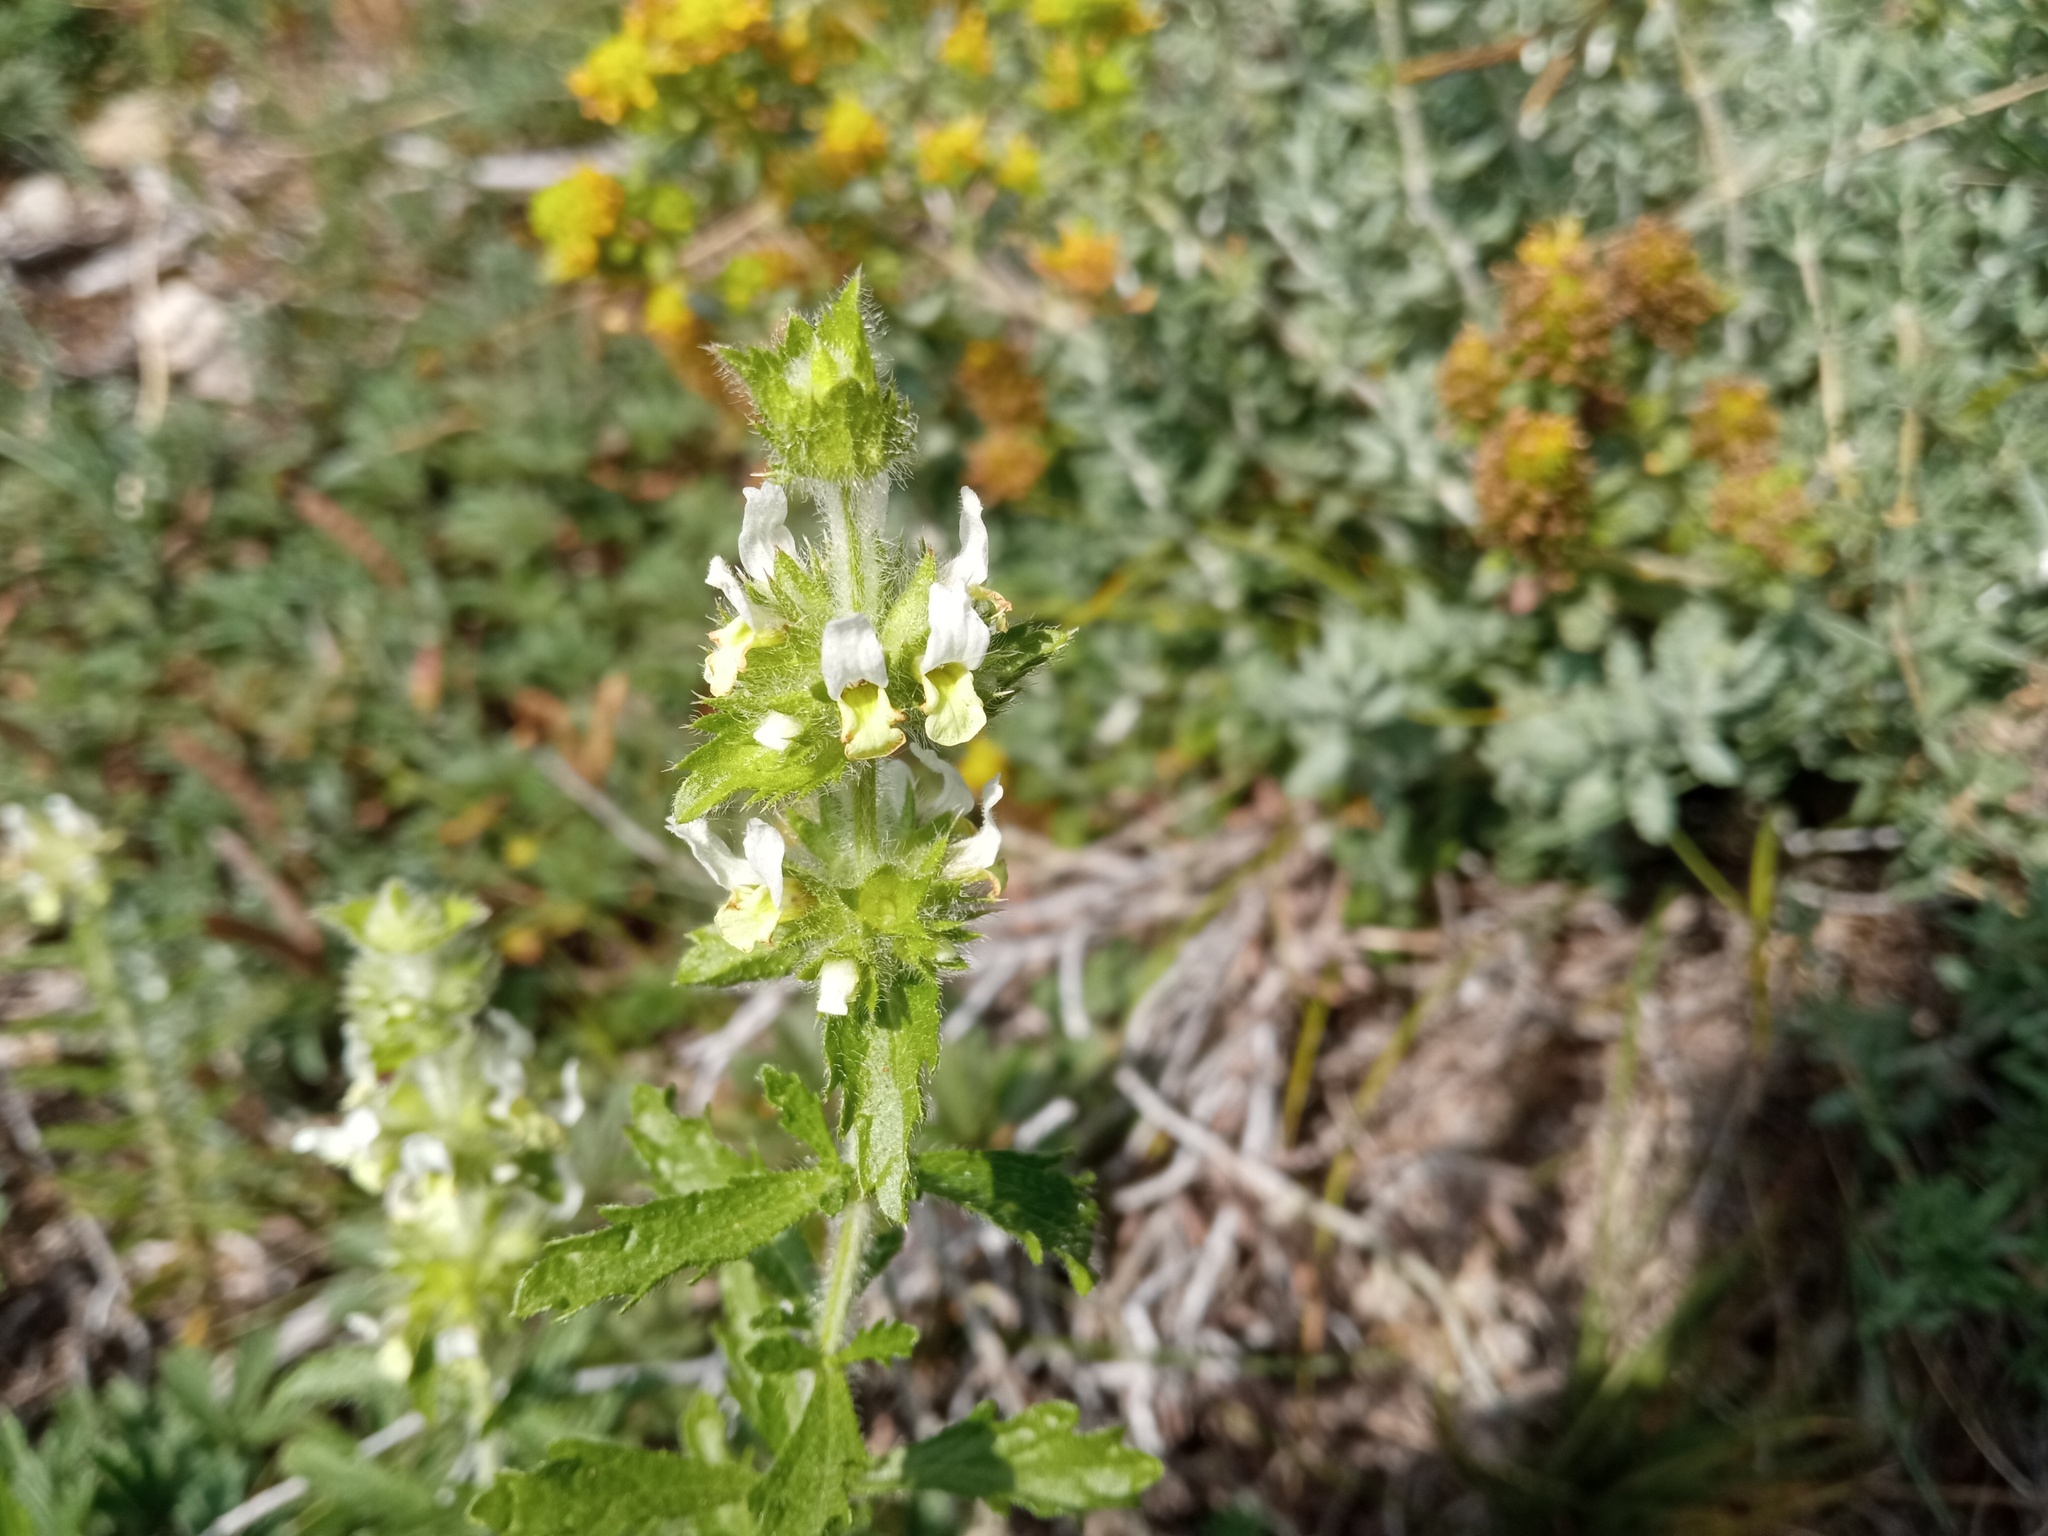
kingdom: Plantae
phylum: Tracheophyta
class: Magnoliopsida
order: Lamiales
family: Lamiaceae
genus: Sideritis
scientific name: Sideritis hirsuta
